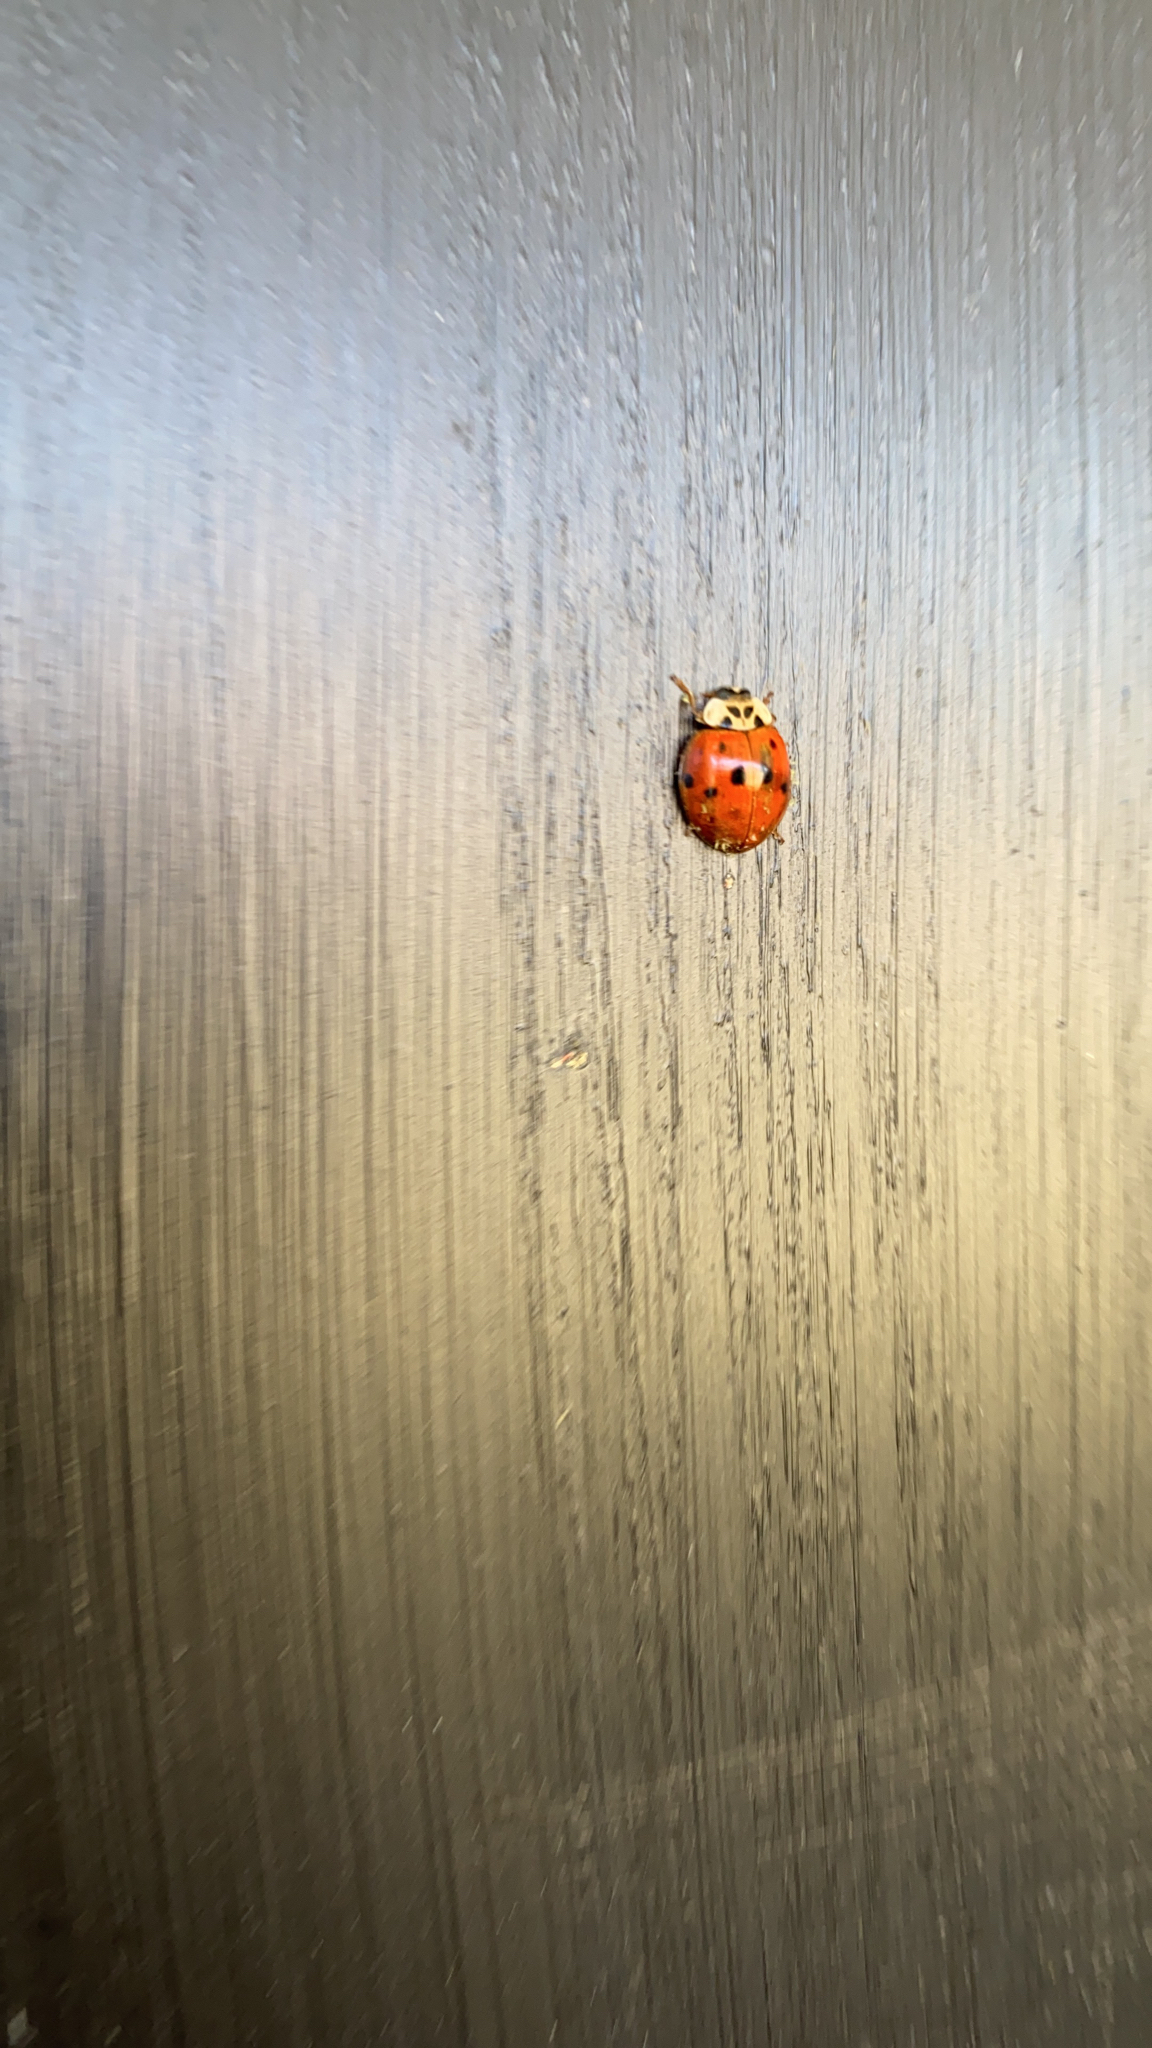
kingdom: Animalia
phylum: Arthropoda
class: Insecta
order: Coleoptera
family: Coccinellidae
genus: Harmonia
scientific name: Harmonia axyridis
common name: Harlequin ladybird
